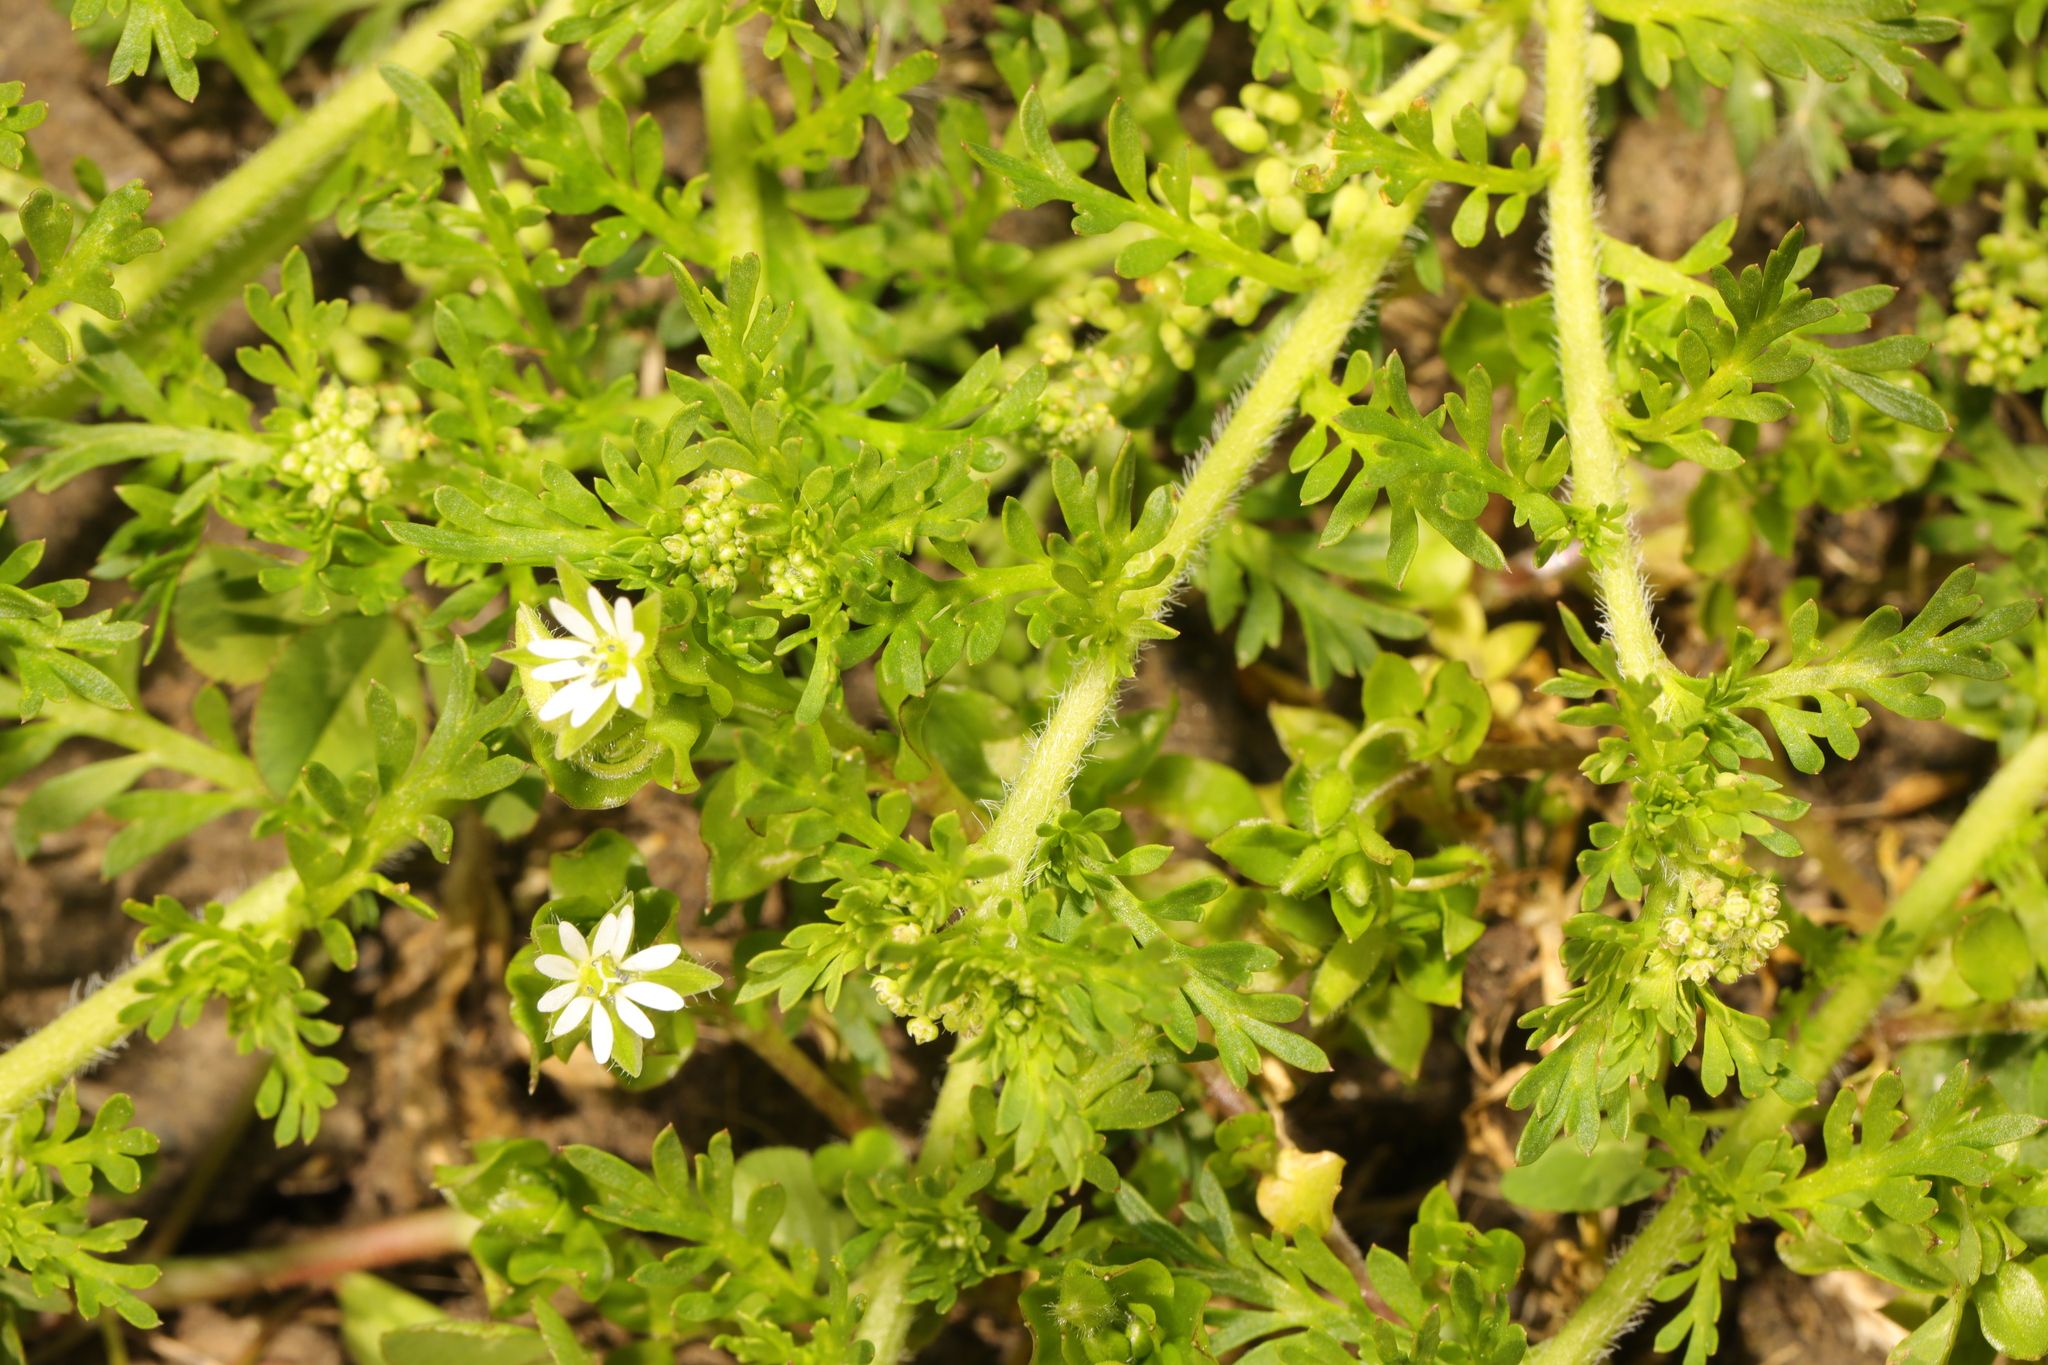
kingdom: Plantae
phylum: Tracheophyta
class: Magnoliopsida
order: Brassicales
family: Brassicaceae
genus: Lepidium
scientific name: Lepidium didymum
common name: Lesser swinecress
